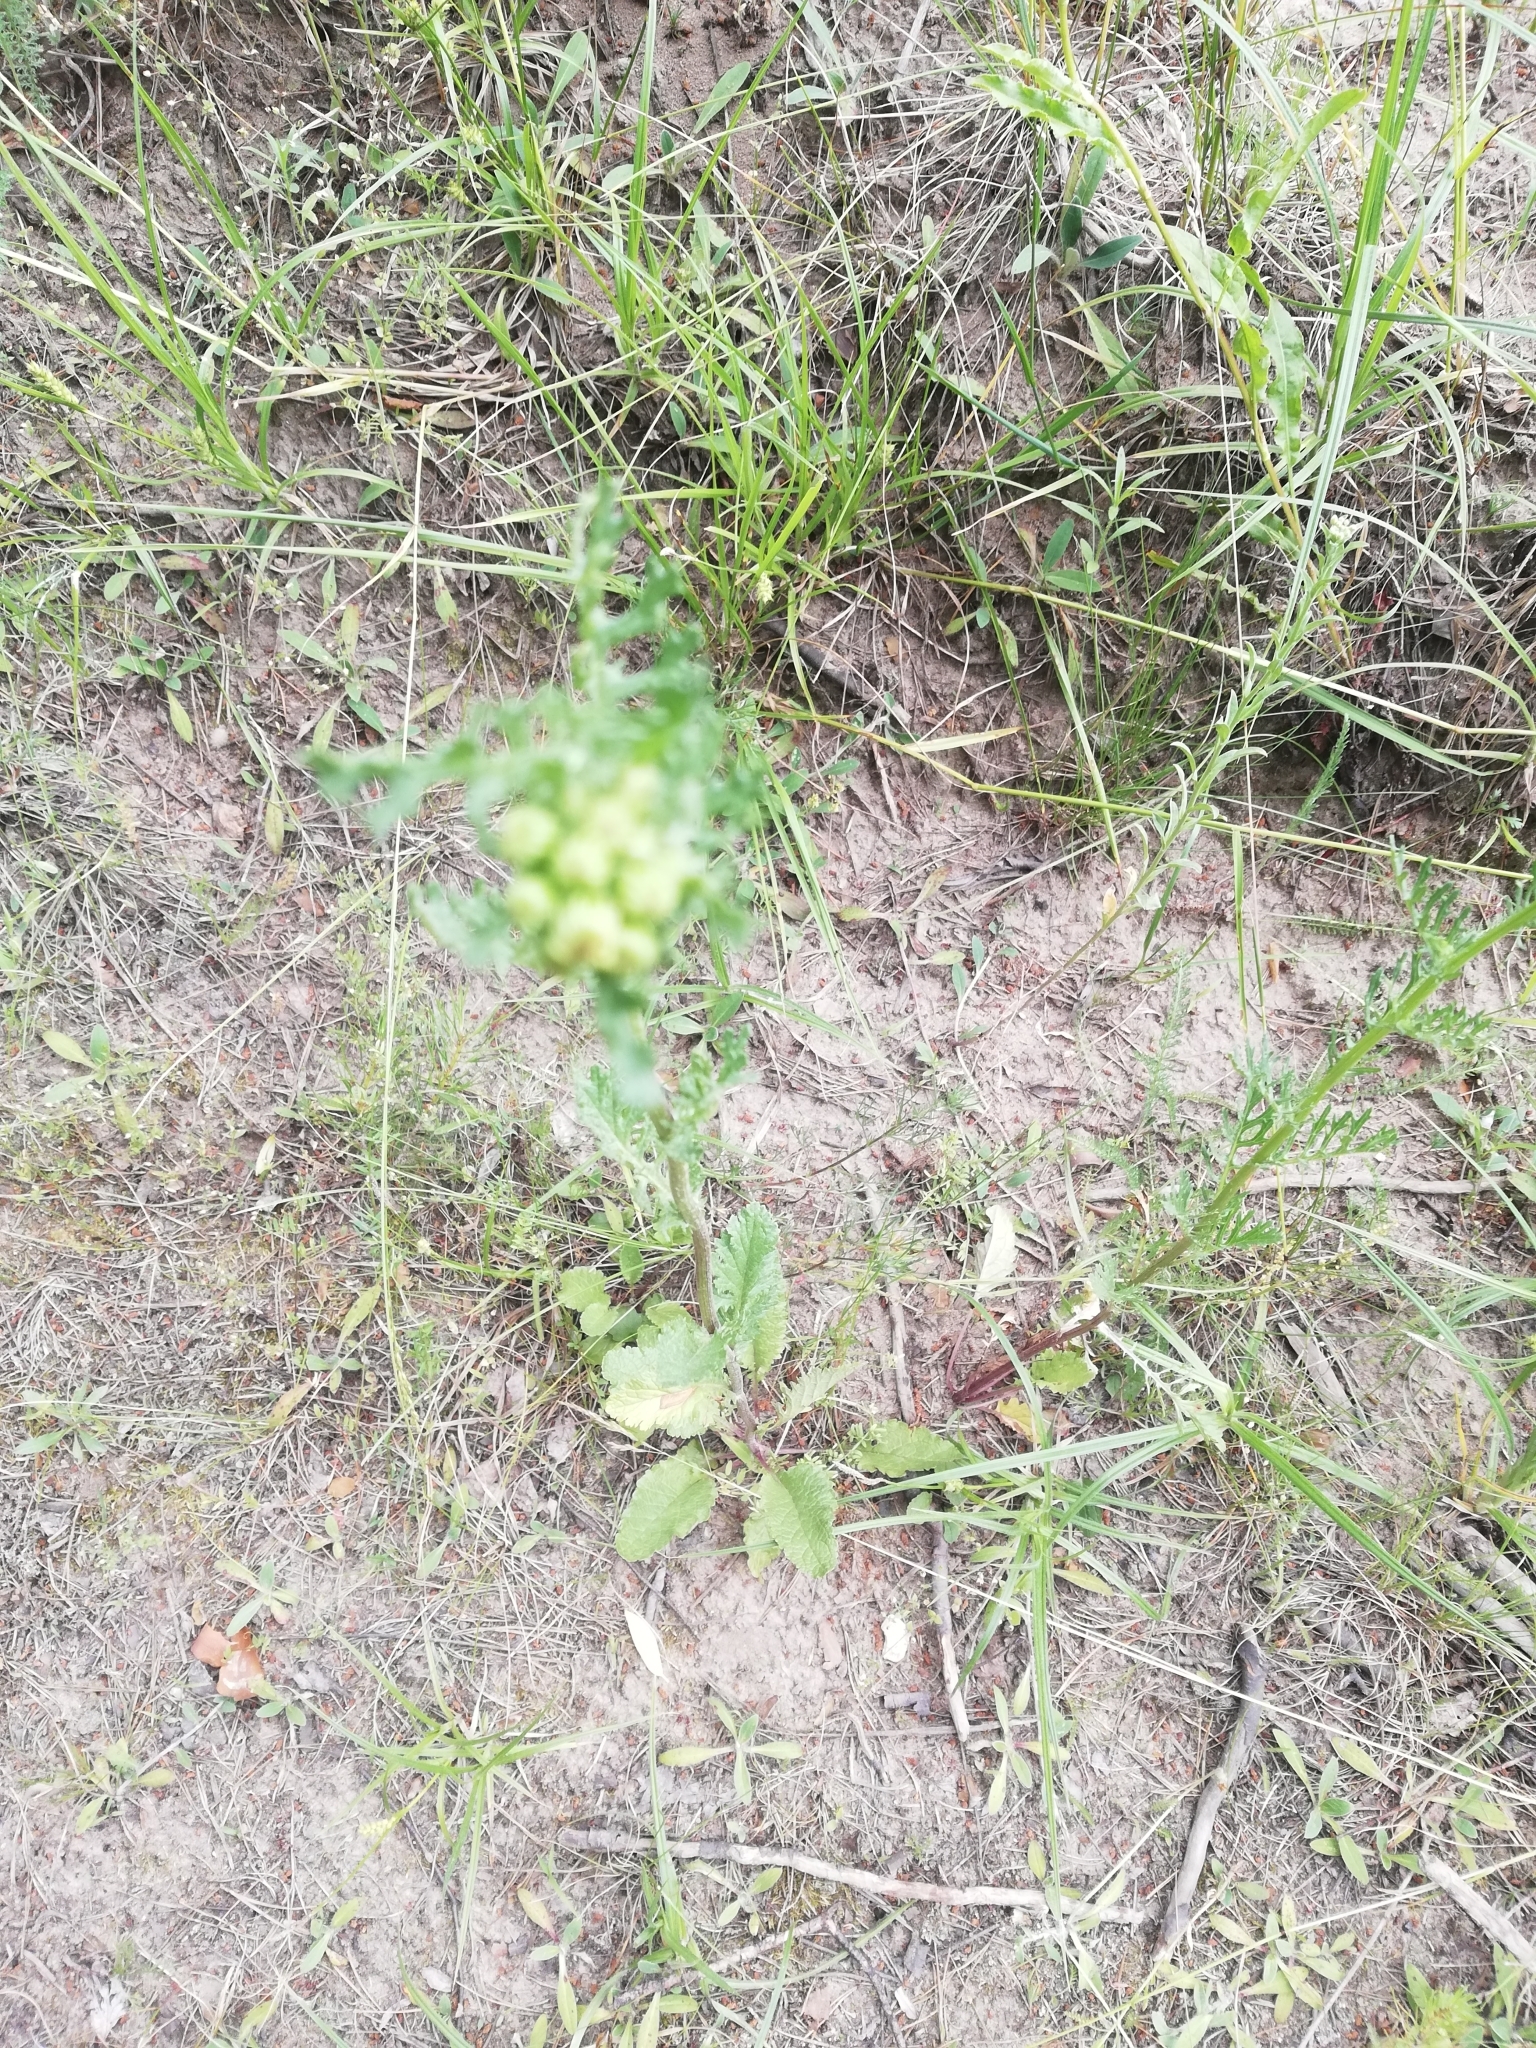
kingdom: Plantae
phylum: Tracheophyta
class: Magnoliopsida
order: Asterales
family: Asteraceae
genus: Jacobaea
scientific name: Jacobaea vulgaris
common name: Stinking willie
